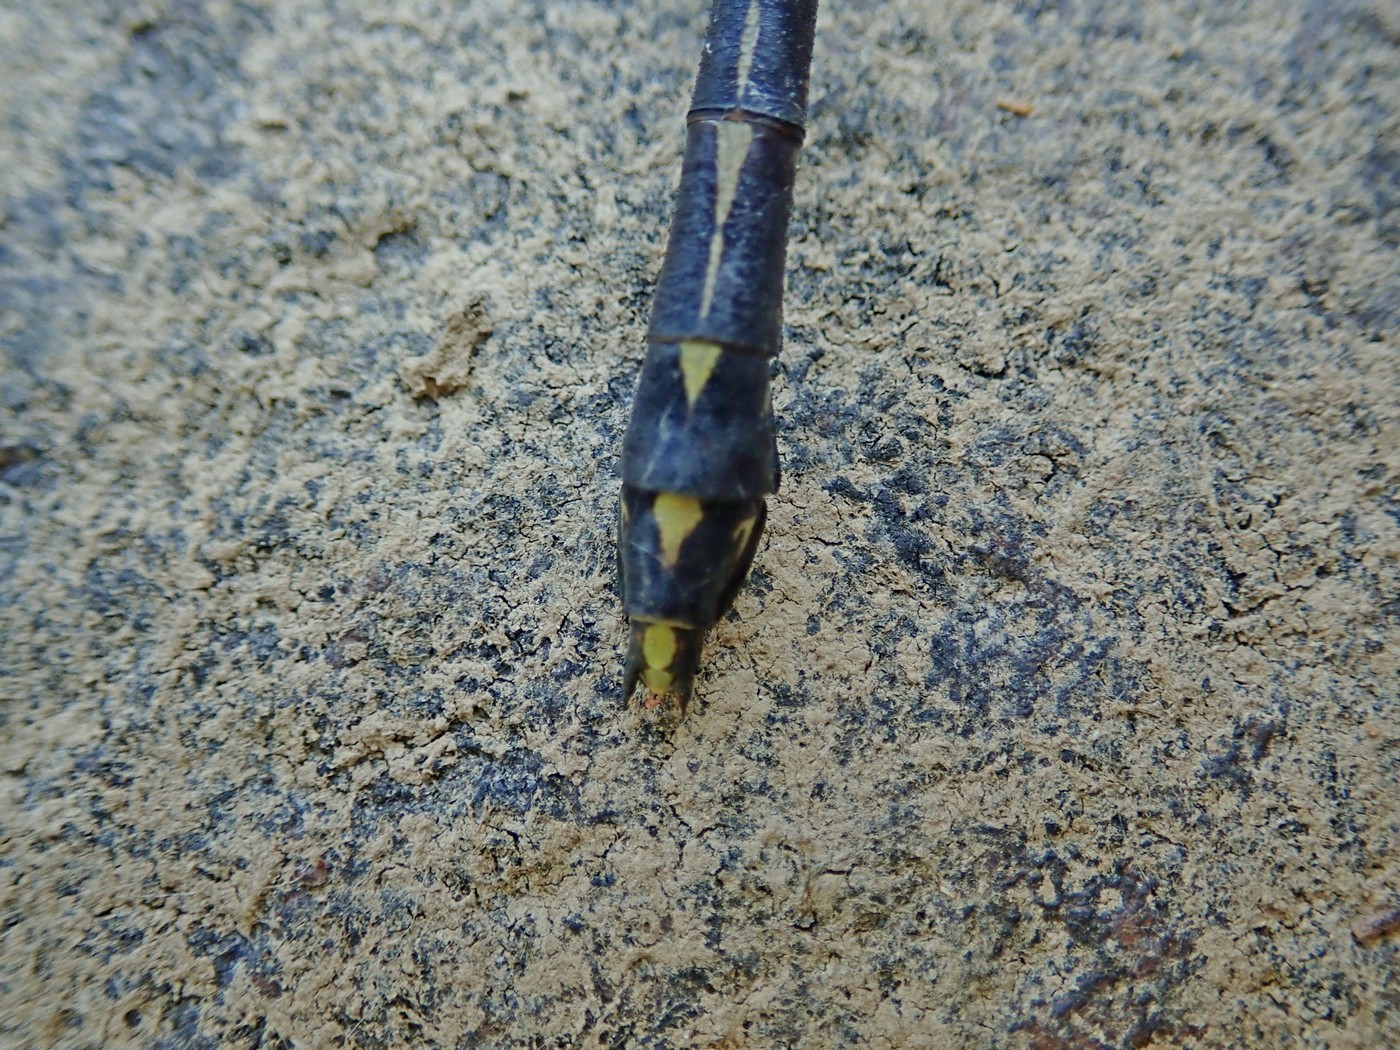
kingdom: Animalia
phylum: Arthropoda
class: Insecta
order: Odonata
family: Gomphidae
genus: Dromogomphus
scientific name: Dromogomphus spinosus
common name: Black-shouldered spinyleg
